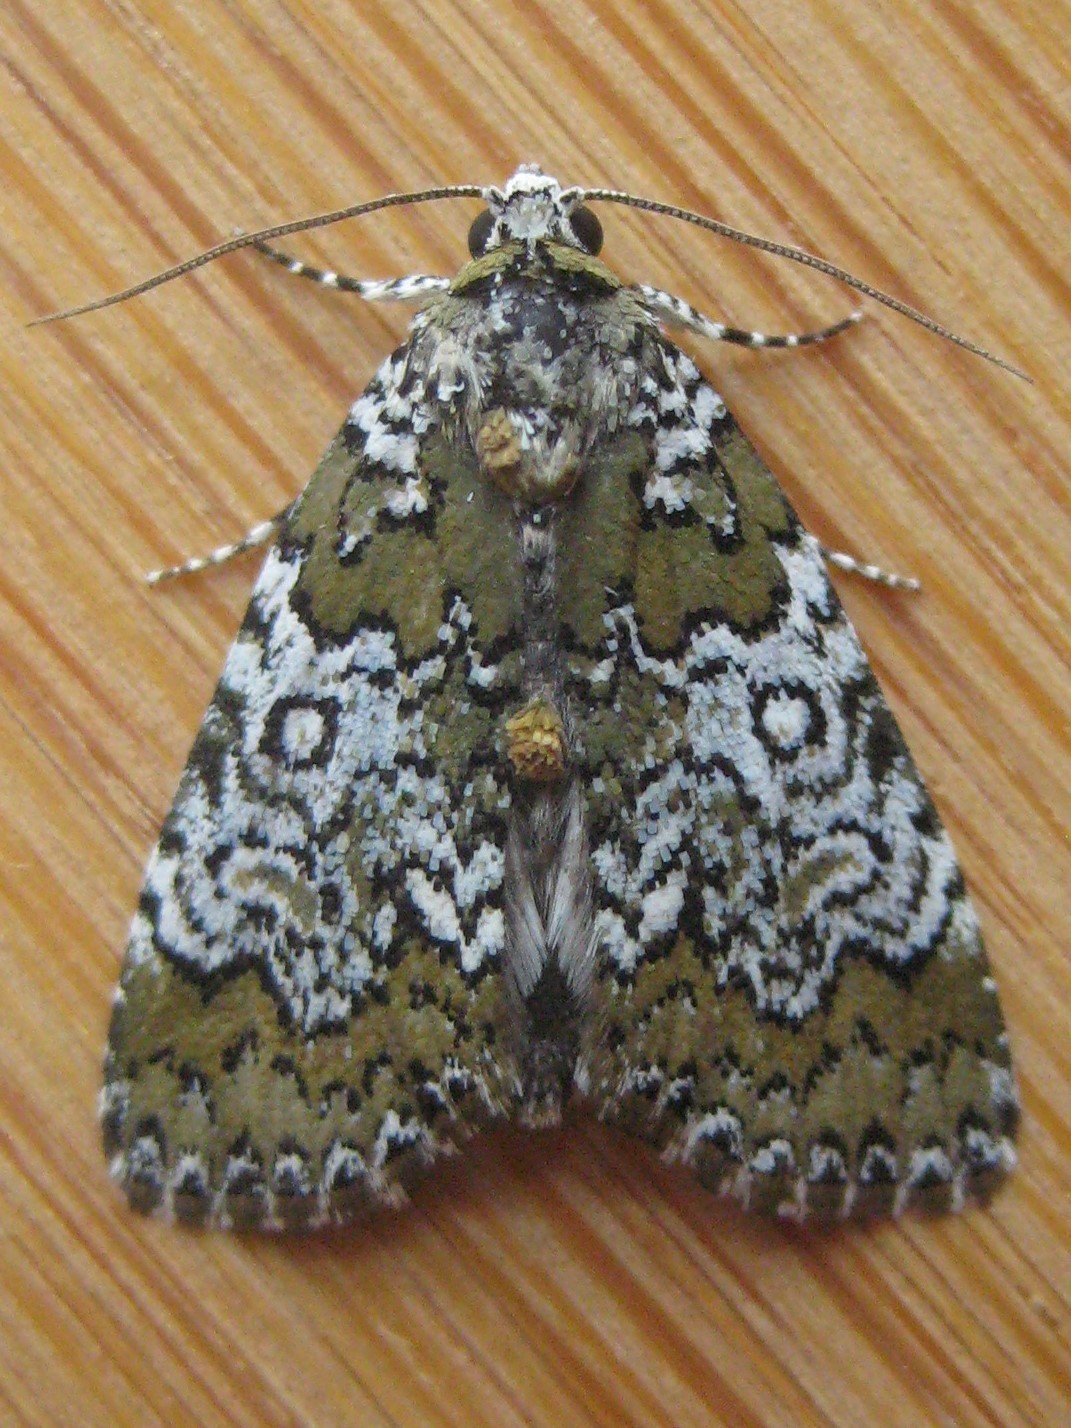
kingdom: Animalia
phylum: Arthropoda
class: Insecta
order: Lepidoptera
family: Noctuidae
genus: Cerma
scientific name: Cerma cora
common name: Bird dropping moth
